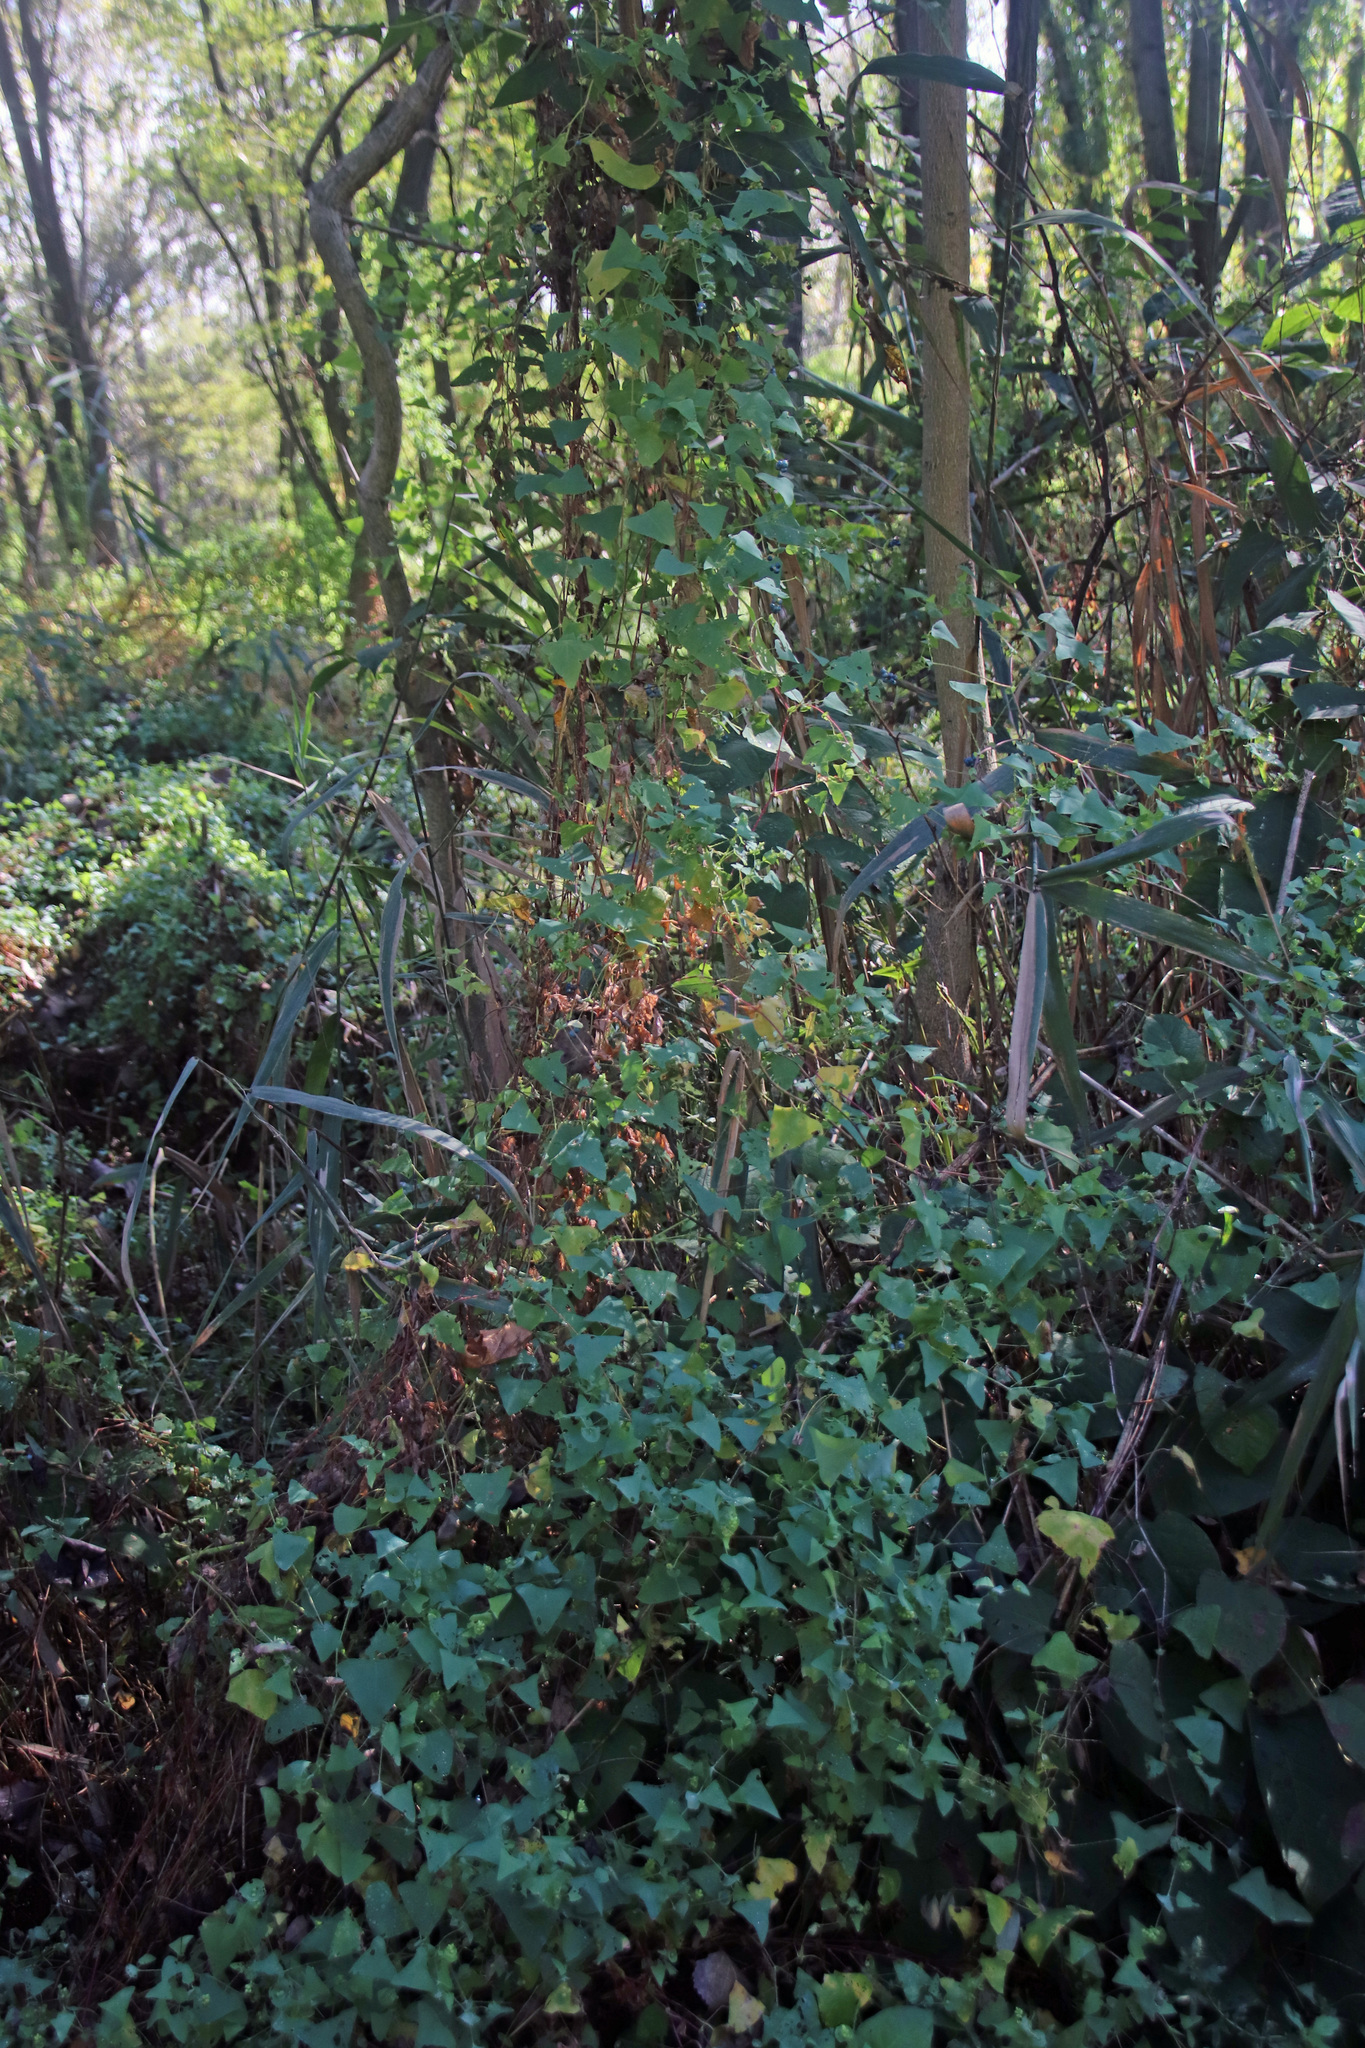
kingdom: Plantae
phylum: Tracheophyta
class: Magnoliopsida
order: Caryophyllales
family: Polygonaceae
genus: Persicaria
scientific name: Persicaria perfoliata
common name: Asiatic tearthumb
